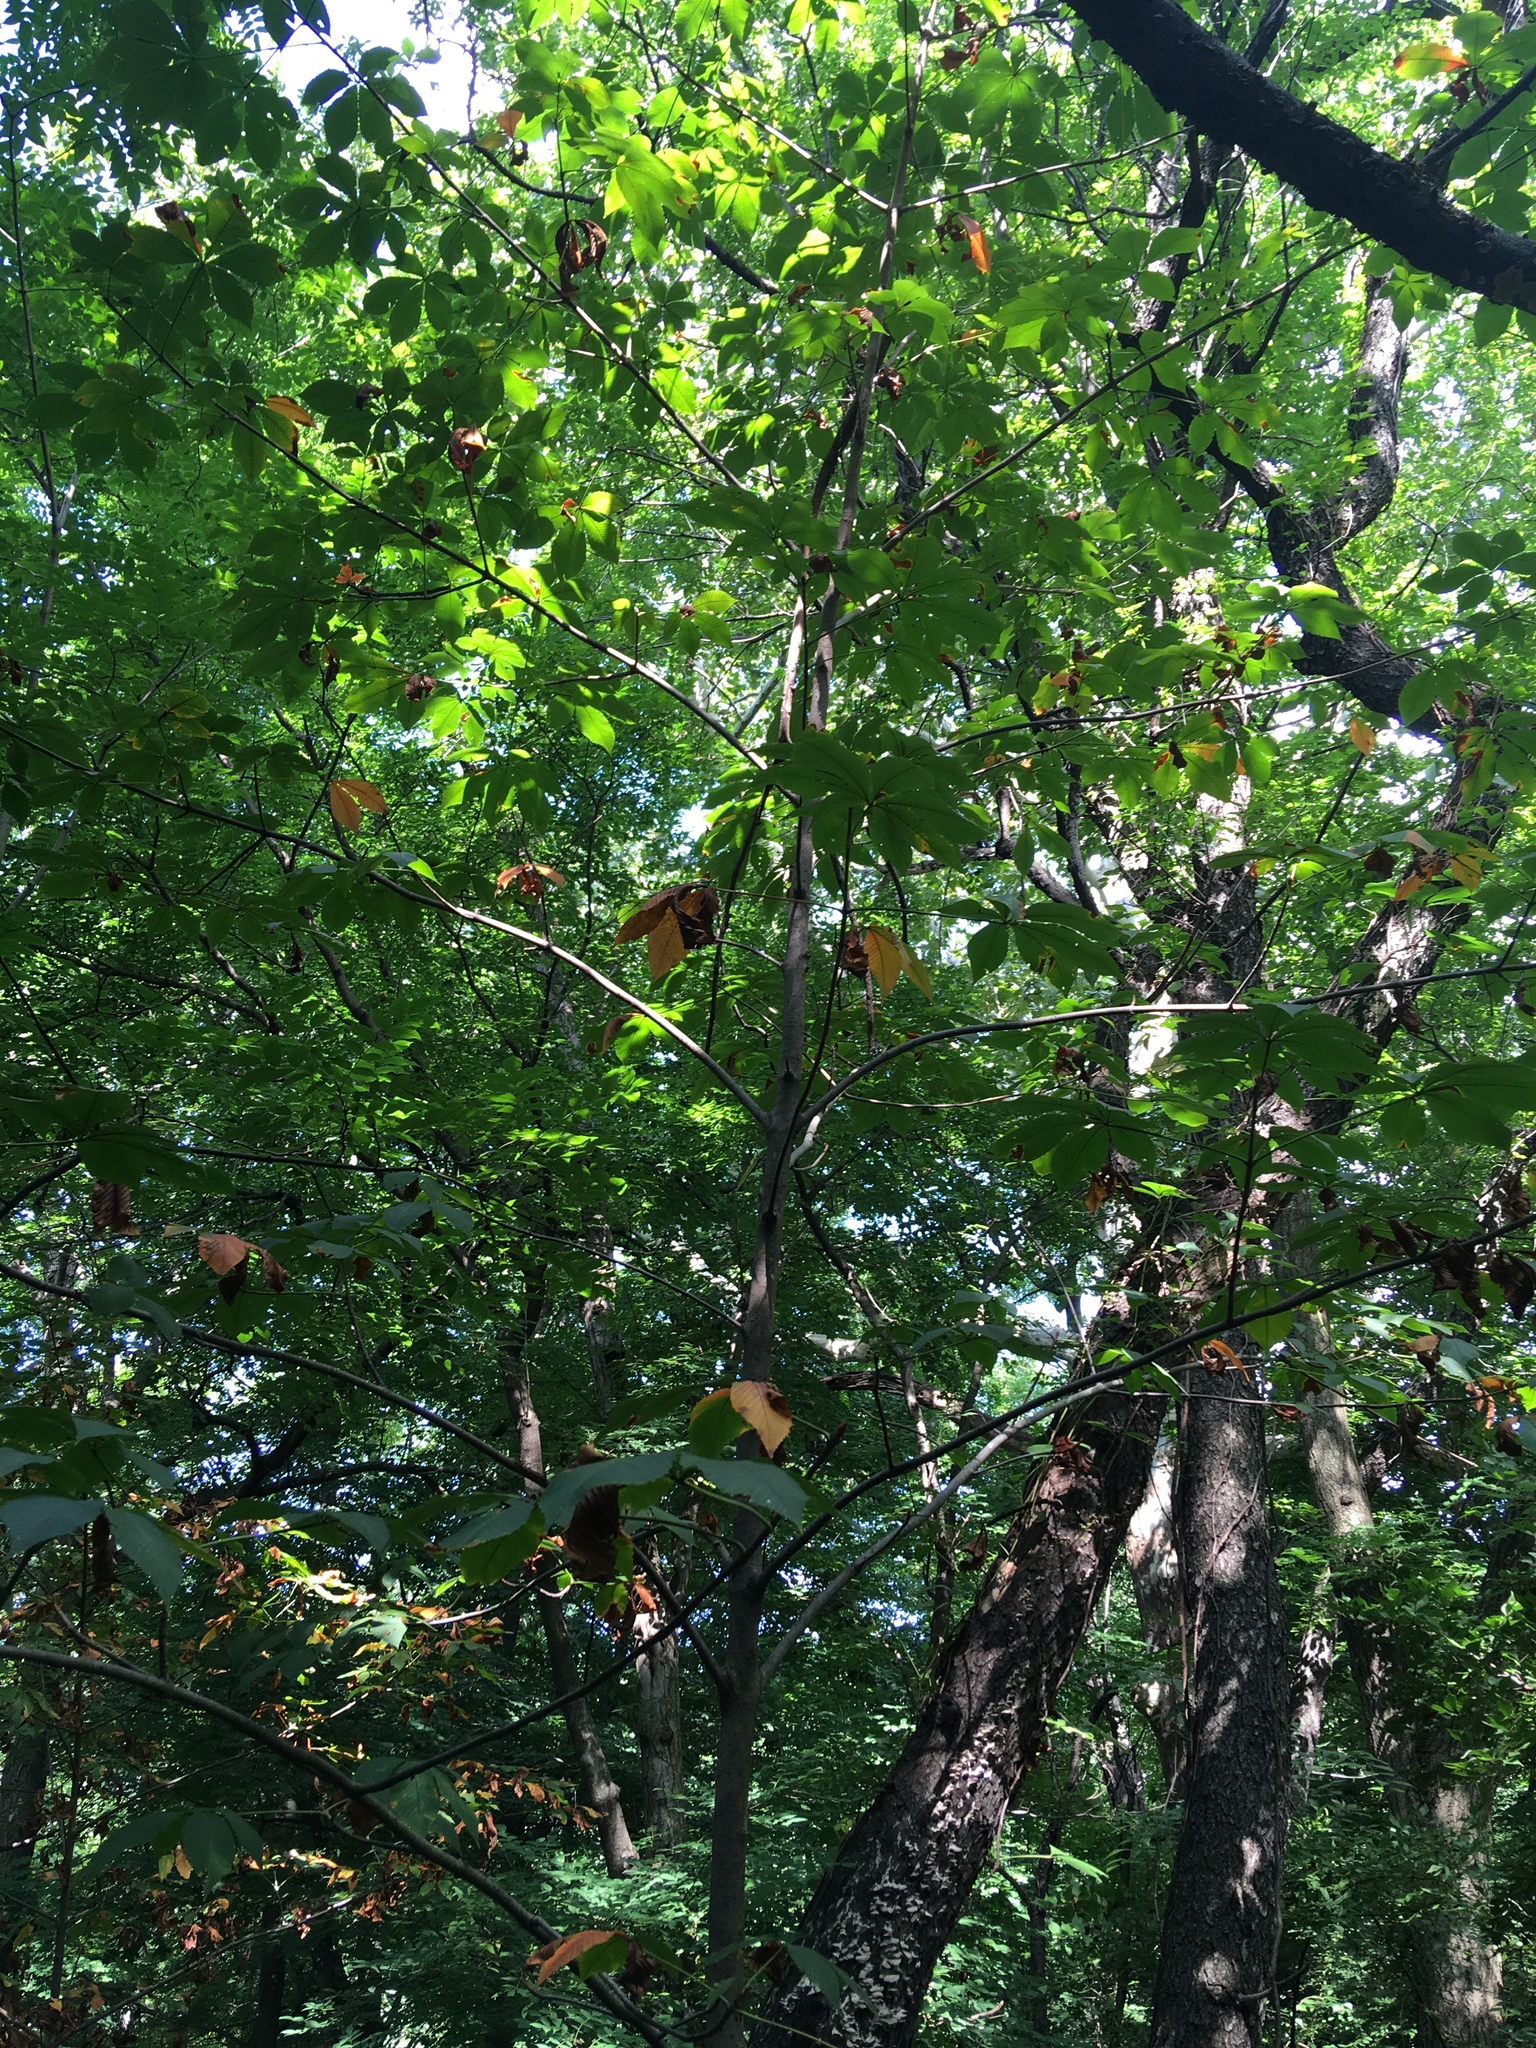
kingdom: Plantae
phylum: Tracheophyta
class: Magnoliopsida
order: Sapindales
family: Sapindaceae
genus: Aesculus
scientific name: Aesculus flava
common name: Yellow buckeye
